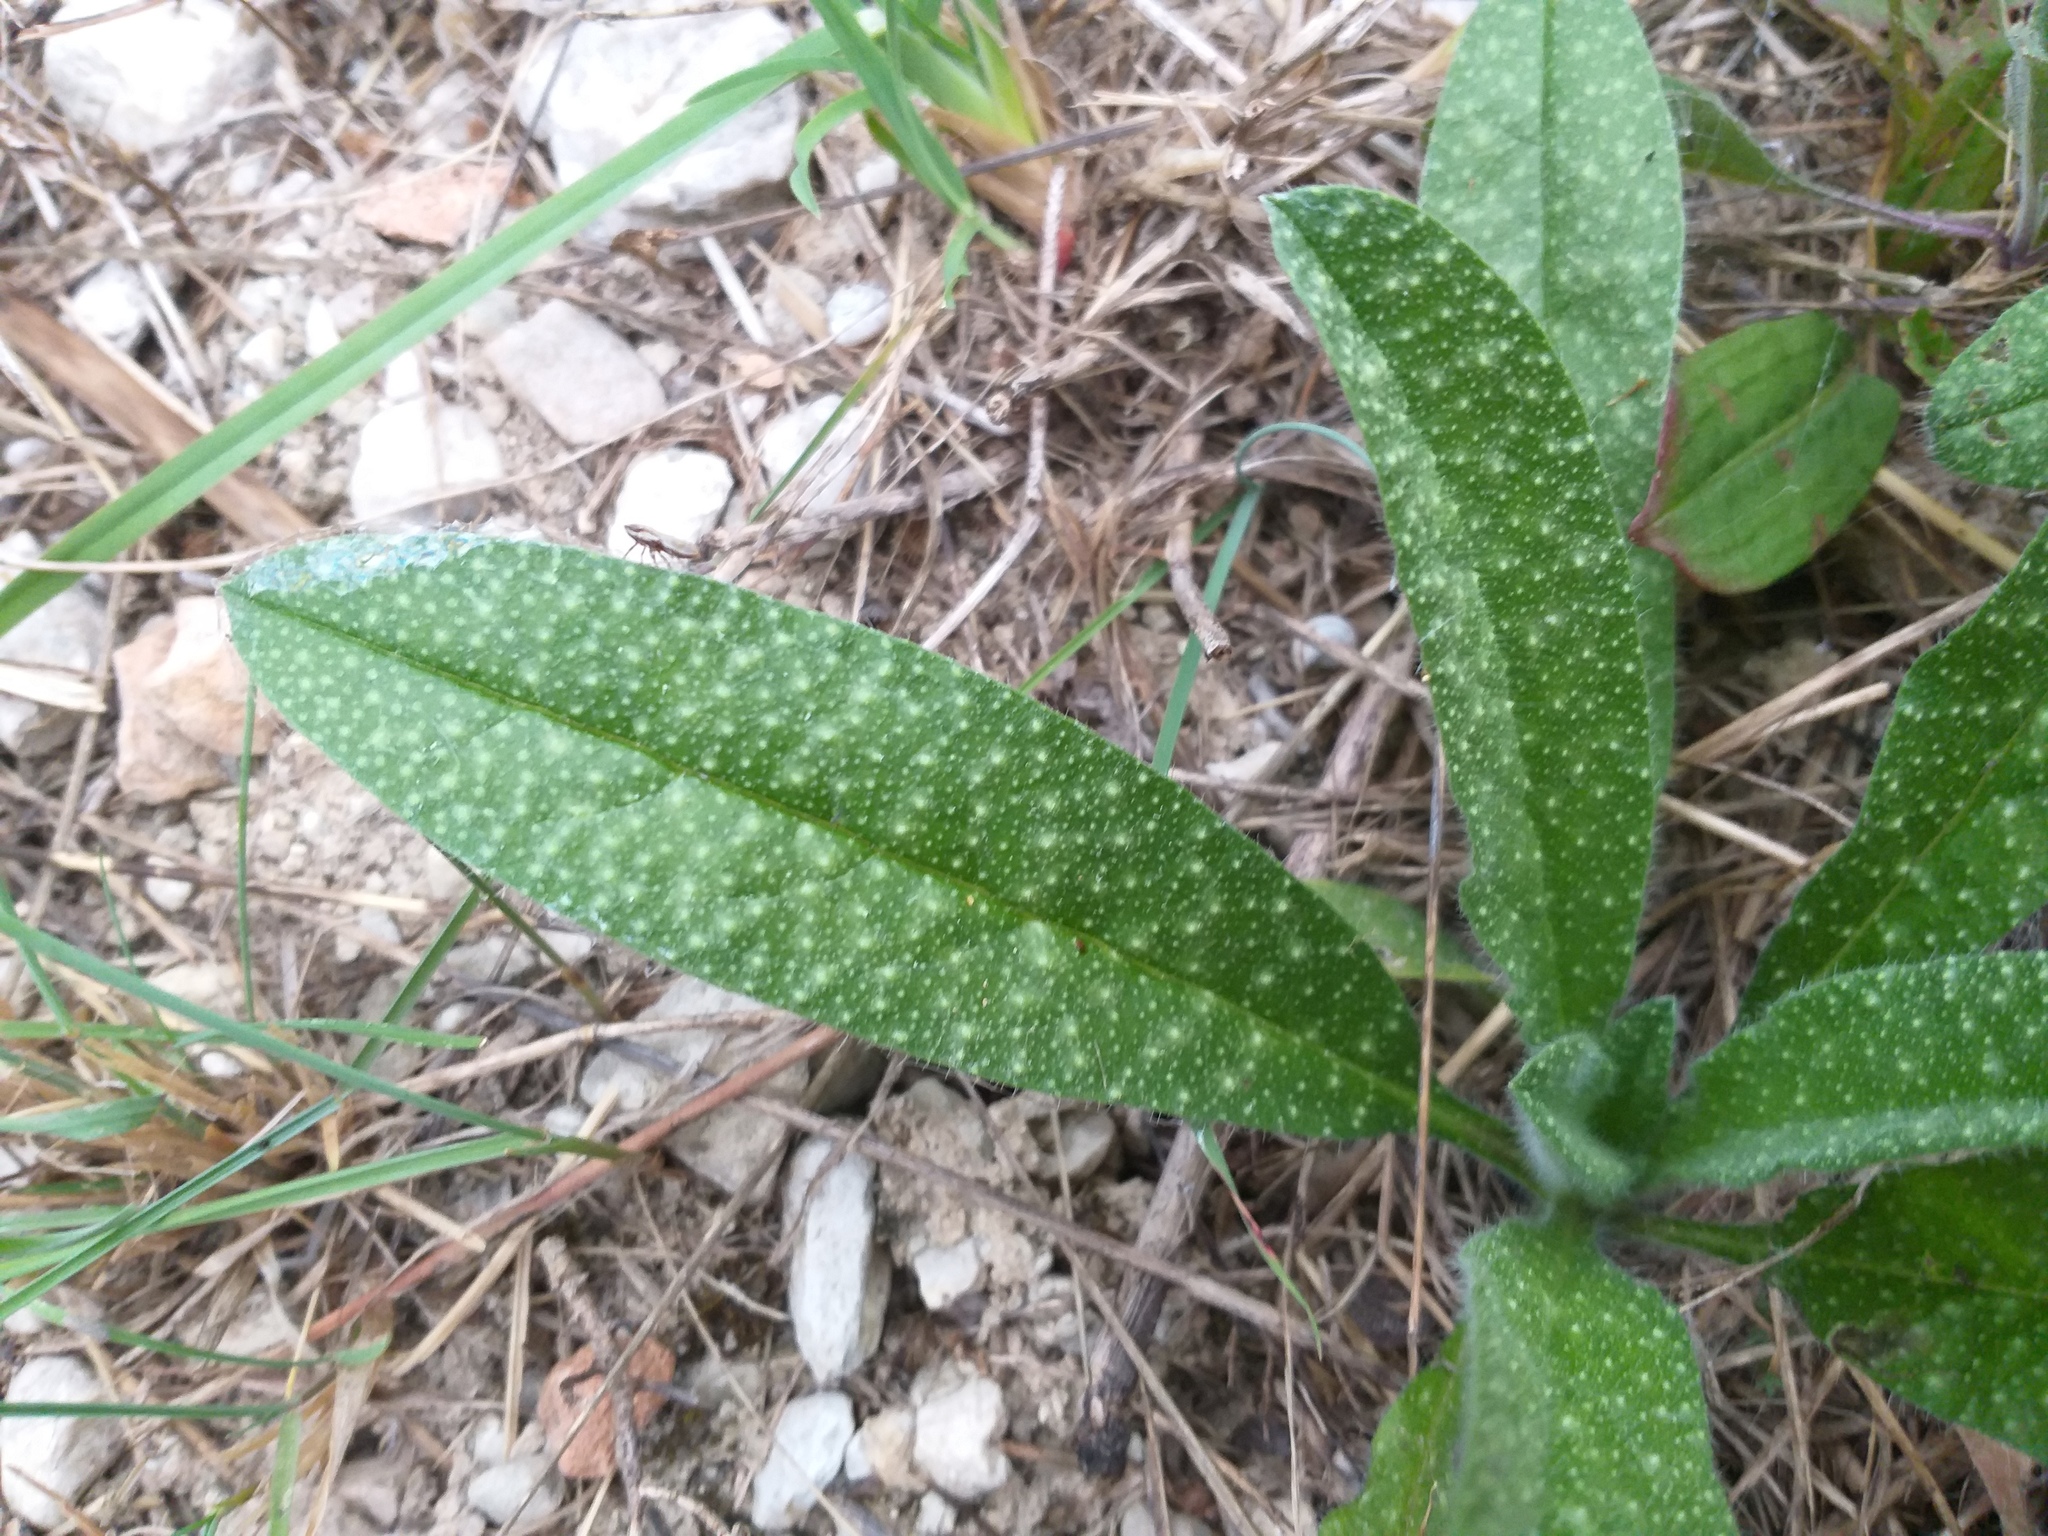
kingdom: Plantae
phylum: Tracheophyta
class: Magnoliopsida
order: Boraginales
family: Boraginaceae
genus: Echium
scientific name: Echium vulgare
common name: Common viper's bugloss
